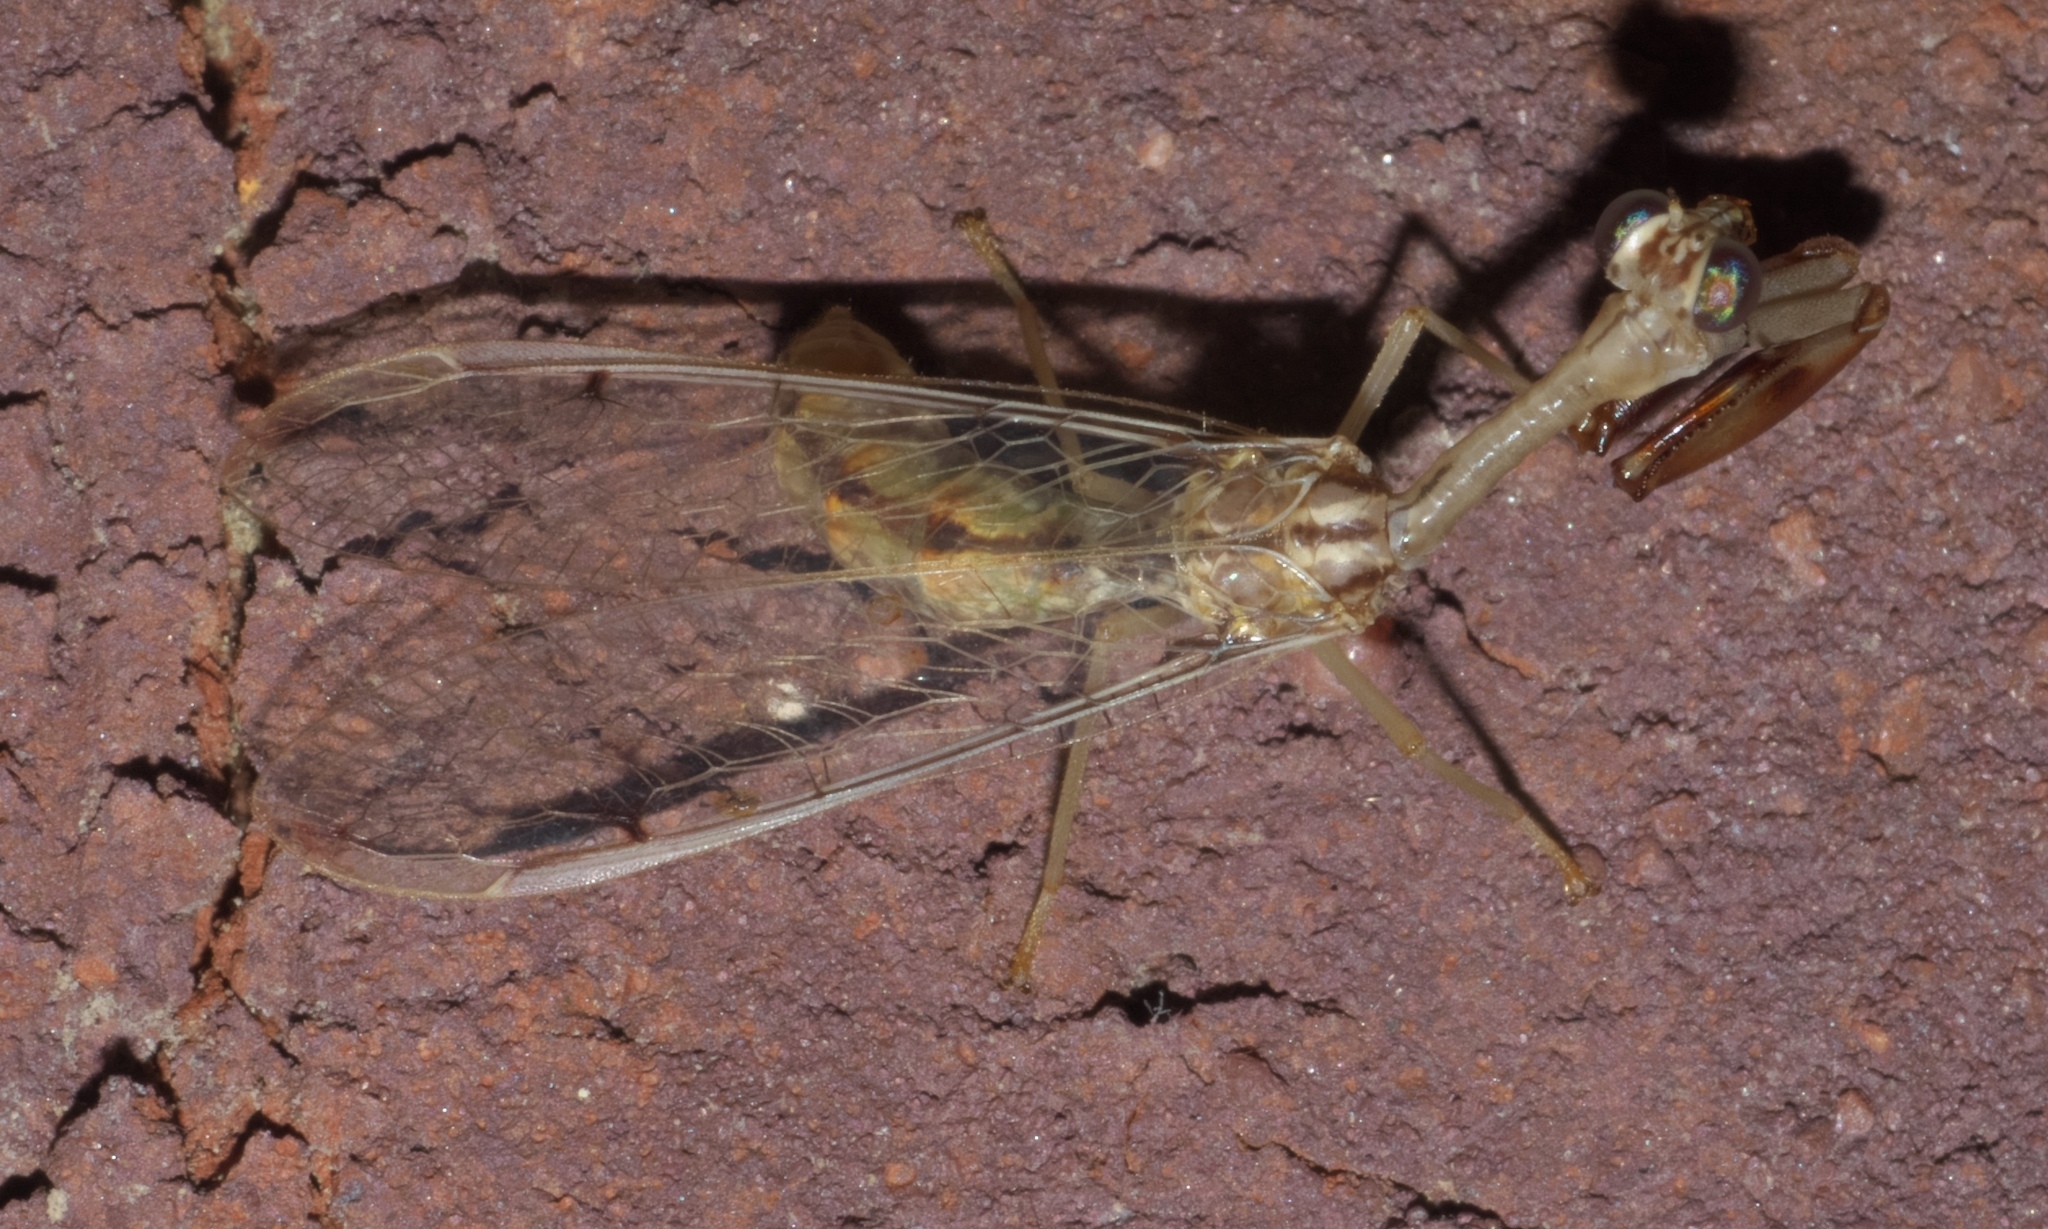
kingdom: Animalia
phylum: Arthropoda
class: Insecta
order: Neuroptera
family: Mantispidae
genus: Dicromantispa
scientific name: Dicromantispa interrupta
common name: Four-spotted mantidfly
